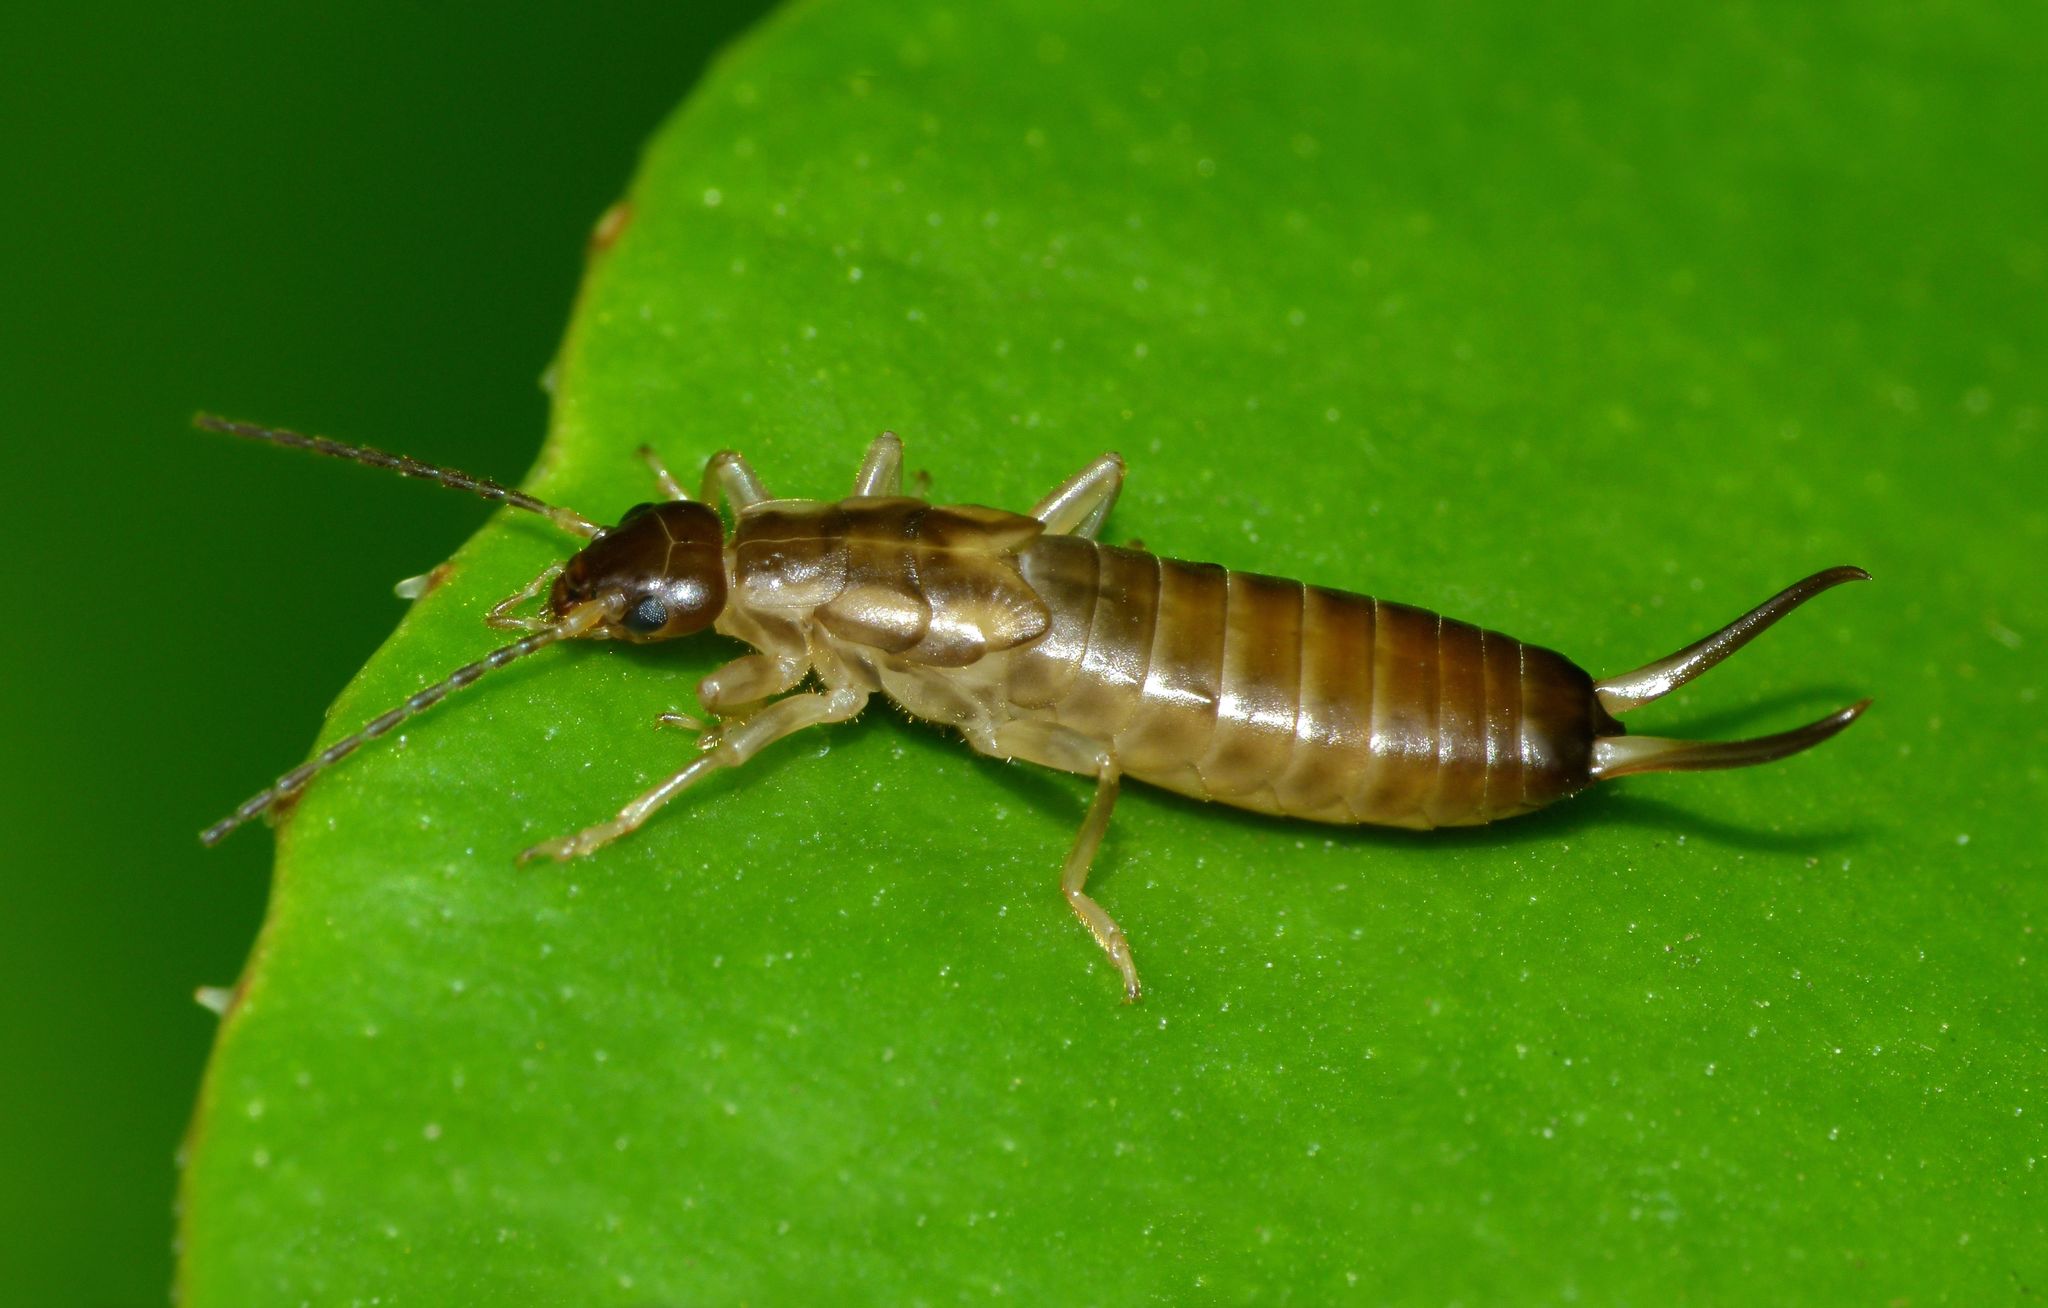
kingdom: Animalia
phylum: Arthropoda
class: Insecta
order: Dermaptera
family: Forficulidae
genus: Forficula
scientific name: Forficula
